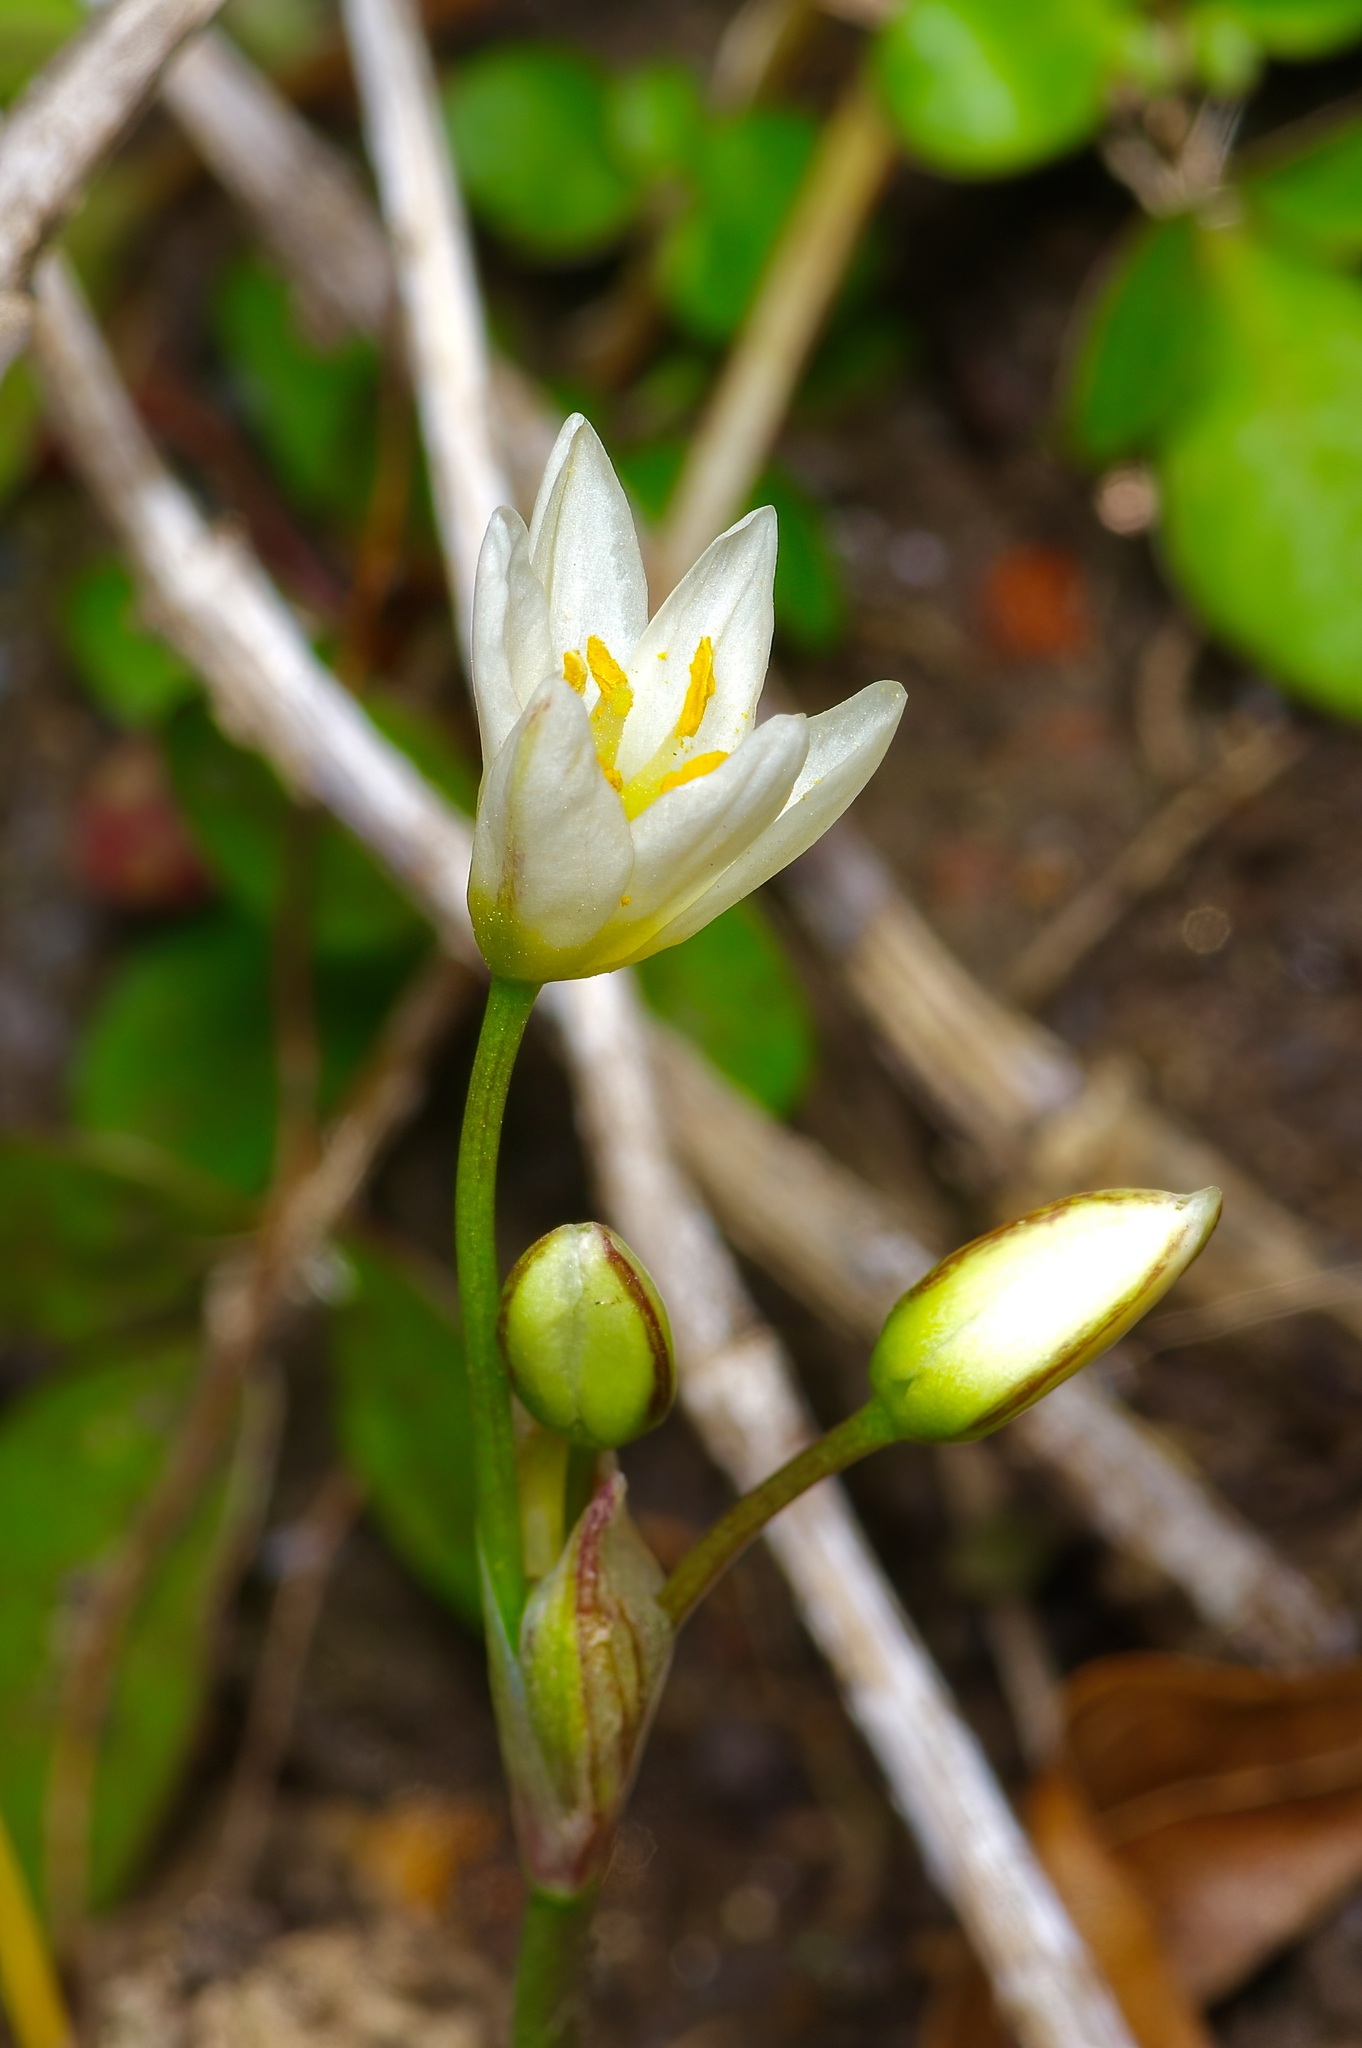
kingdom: Plantae
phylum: Tracheophyta
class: Liliopsida
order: Asparagales
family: Amaryllidaceae
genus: Nothoscordum
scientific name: Nothoscordum bivalve
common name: Crow-poison
